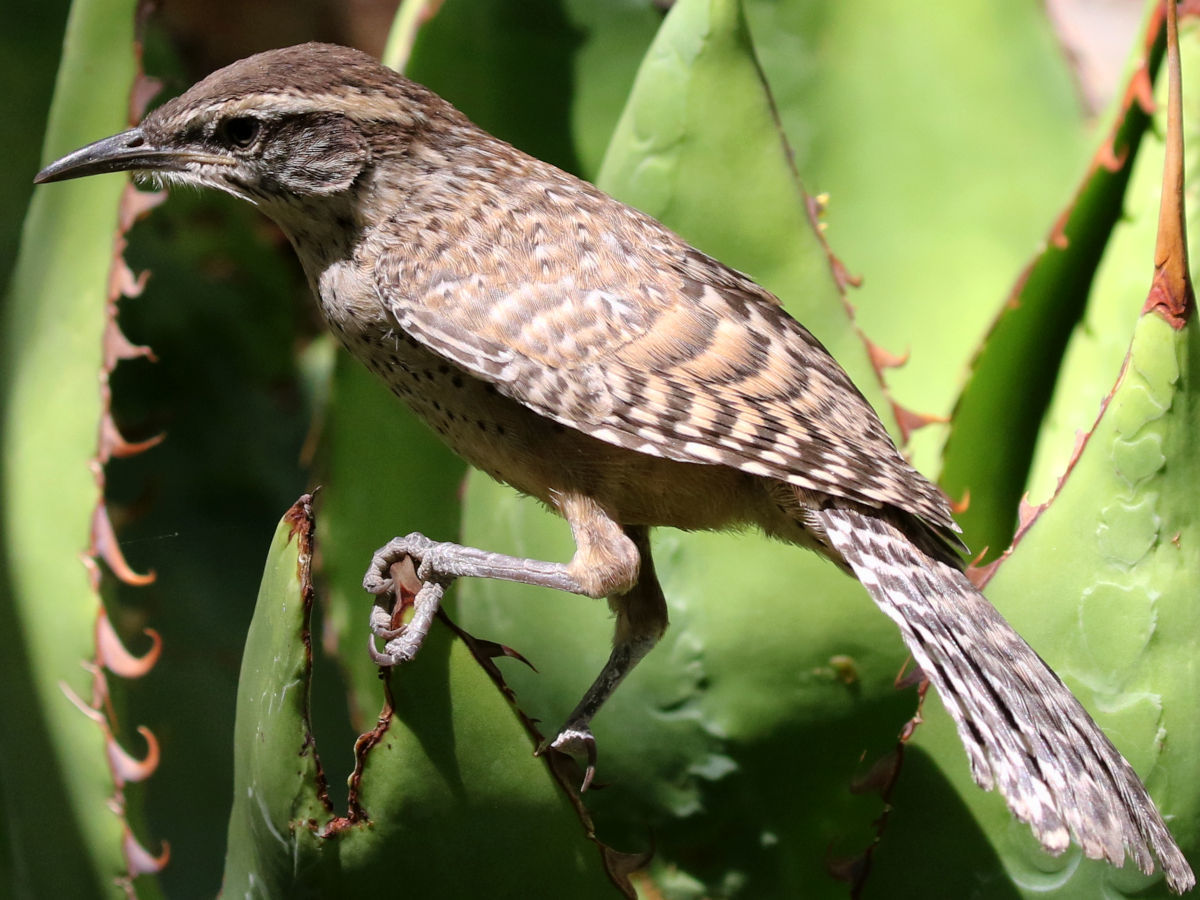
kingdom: Animalia
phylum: Chordata
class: Aves
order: Passeriformes
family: Troglodytidae
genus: Campylorhynchus
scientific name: Campylorhynchus brunneicapillus
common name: Cactus wren
